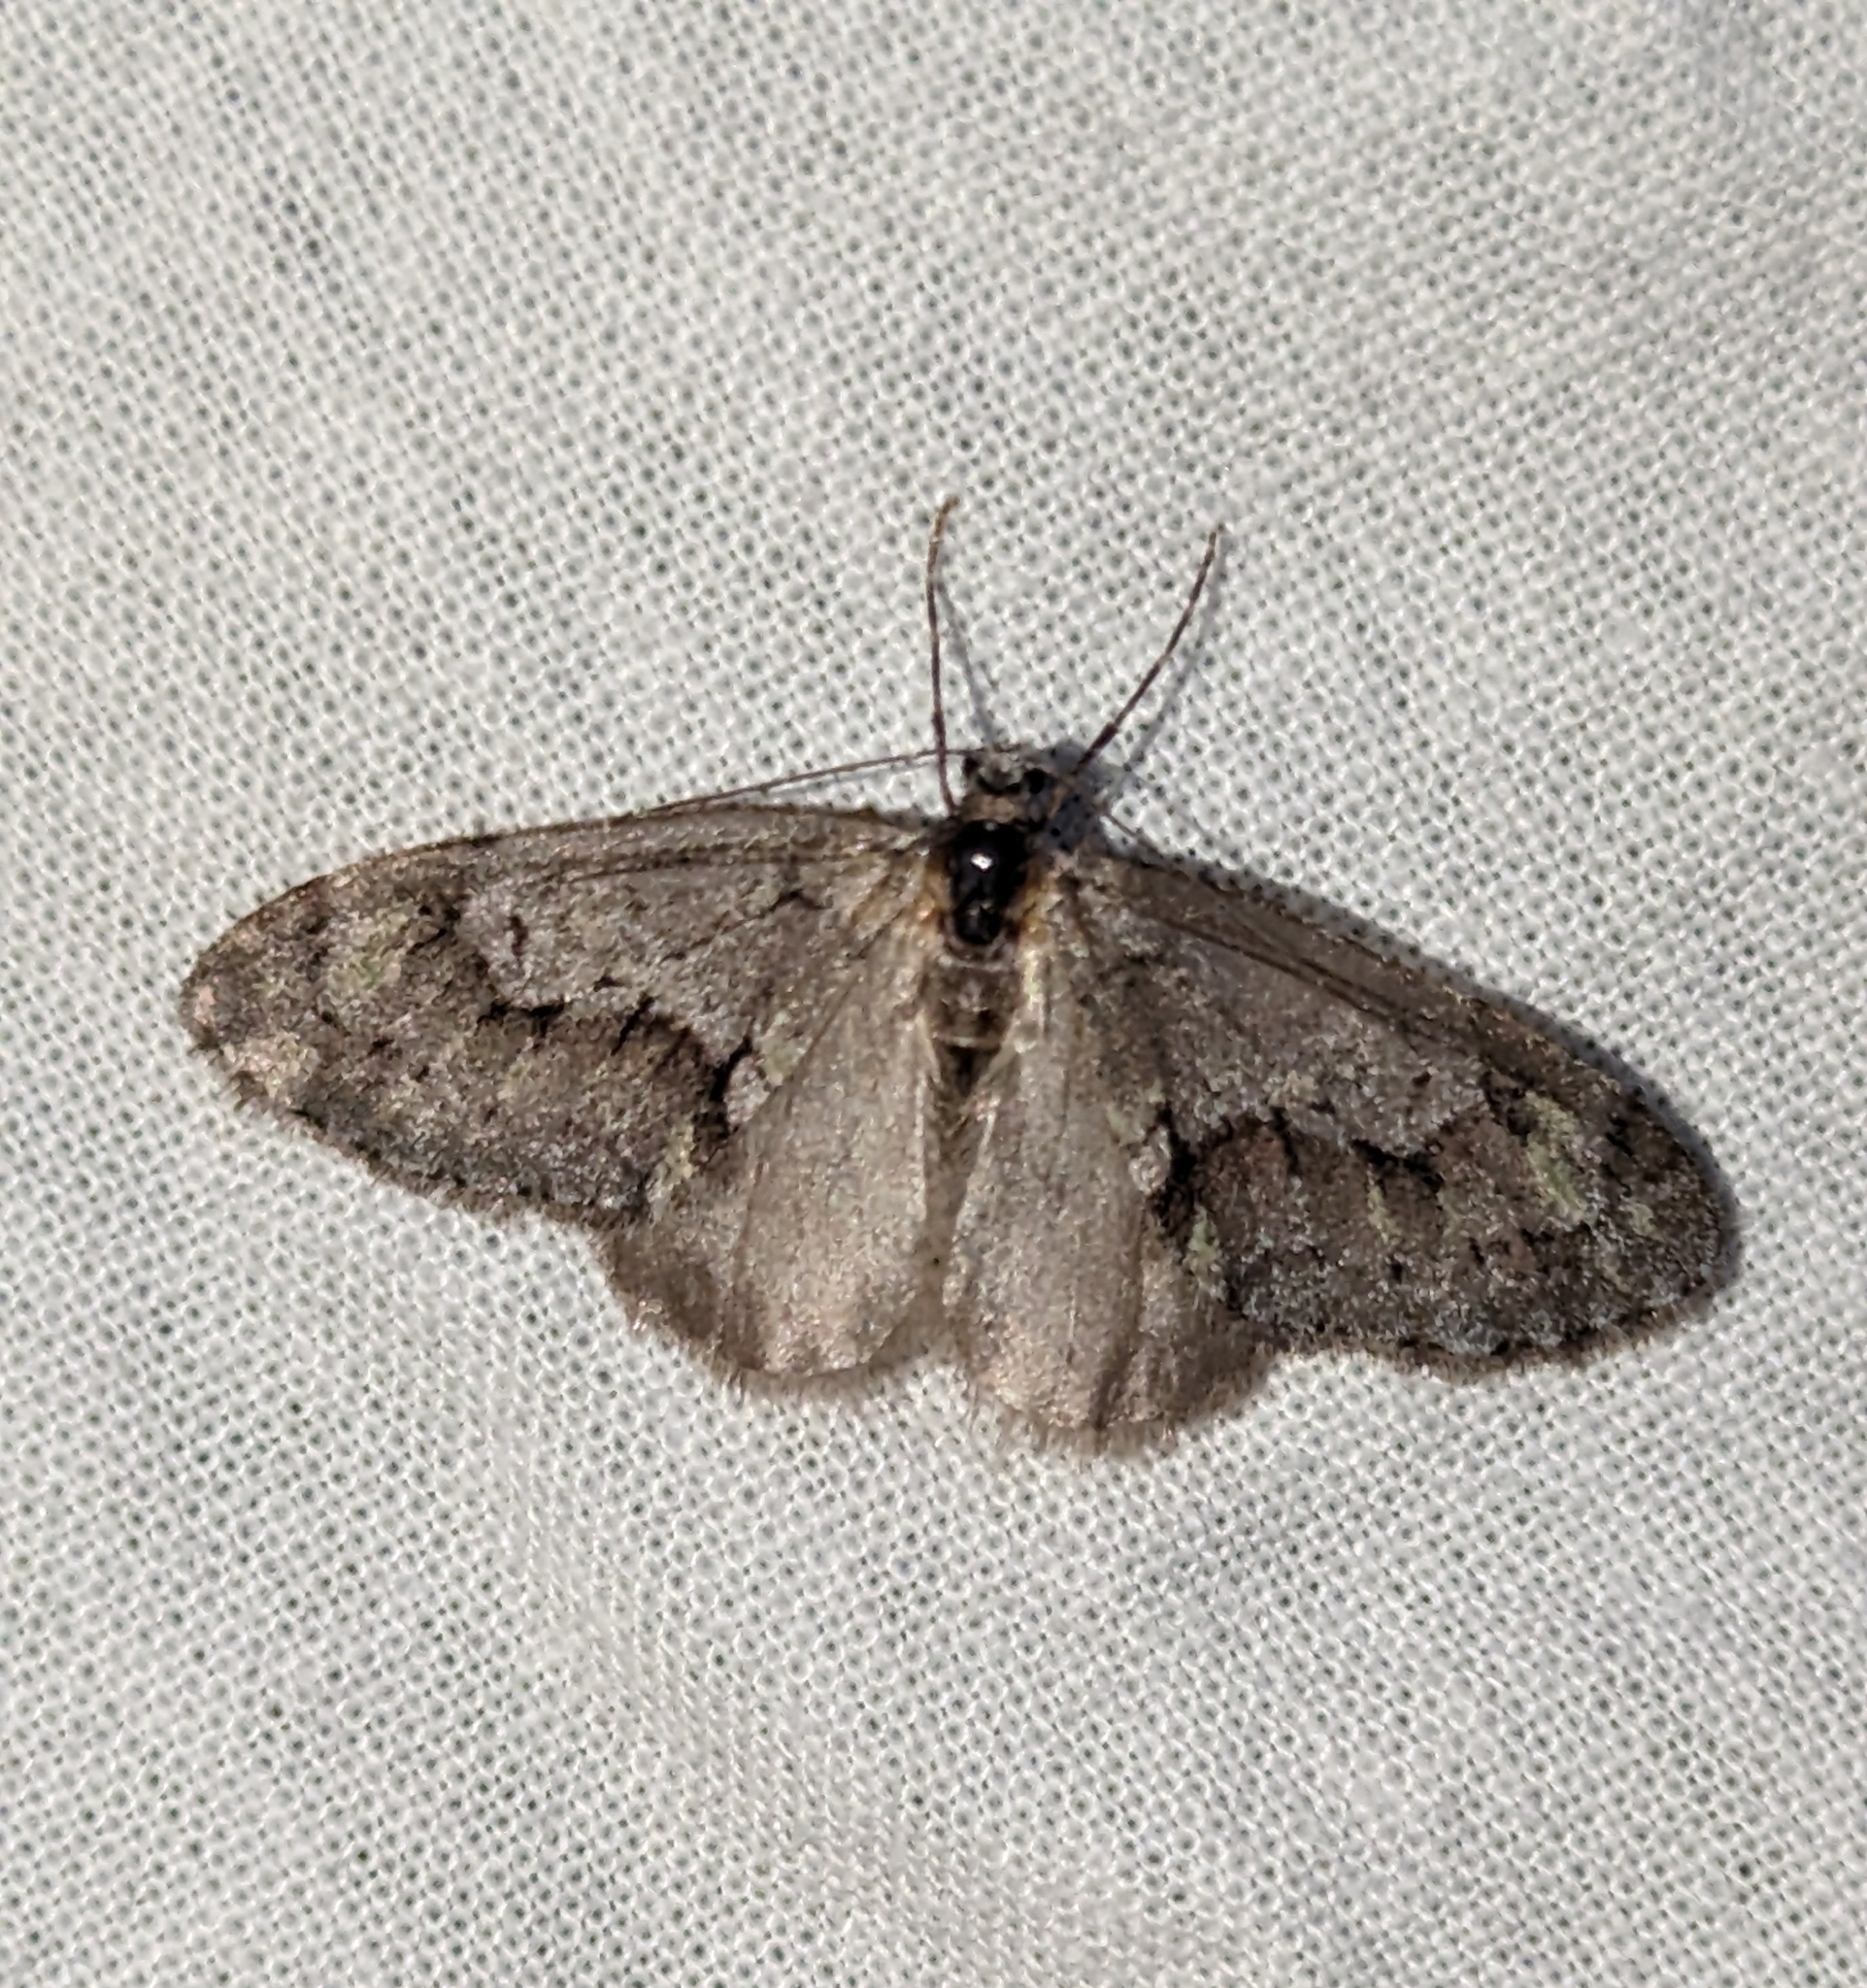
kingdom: Animalia
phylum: Arthropoda
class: Insecta
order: Lepidoptera
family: Geometridae
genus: Cladara
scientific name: Cladara limitaria
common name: Mottled gray carpet
